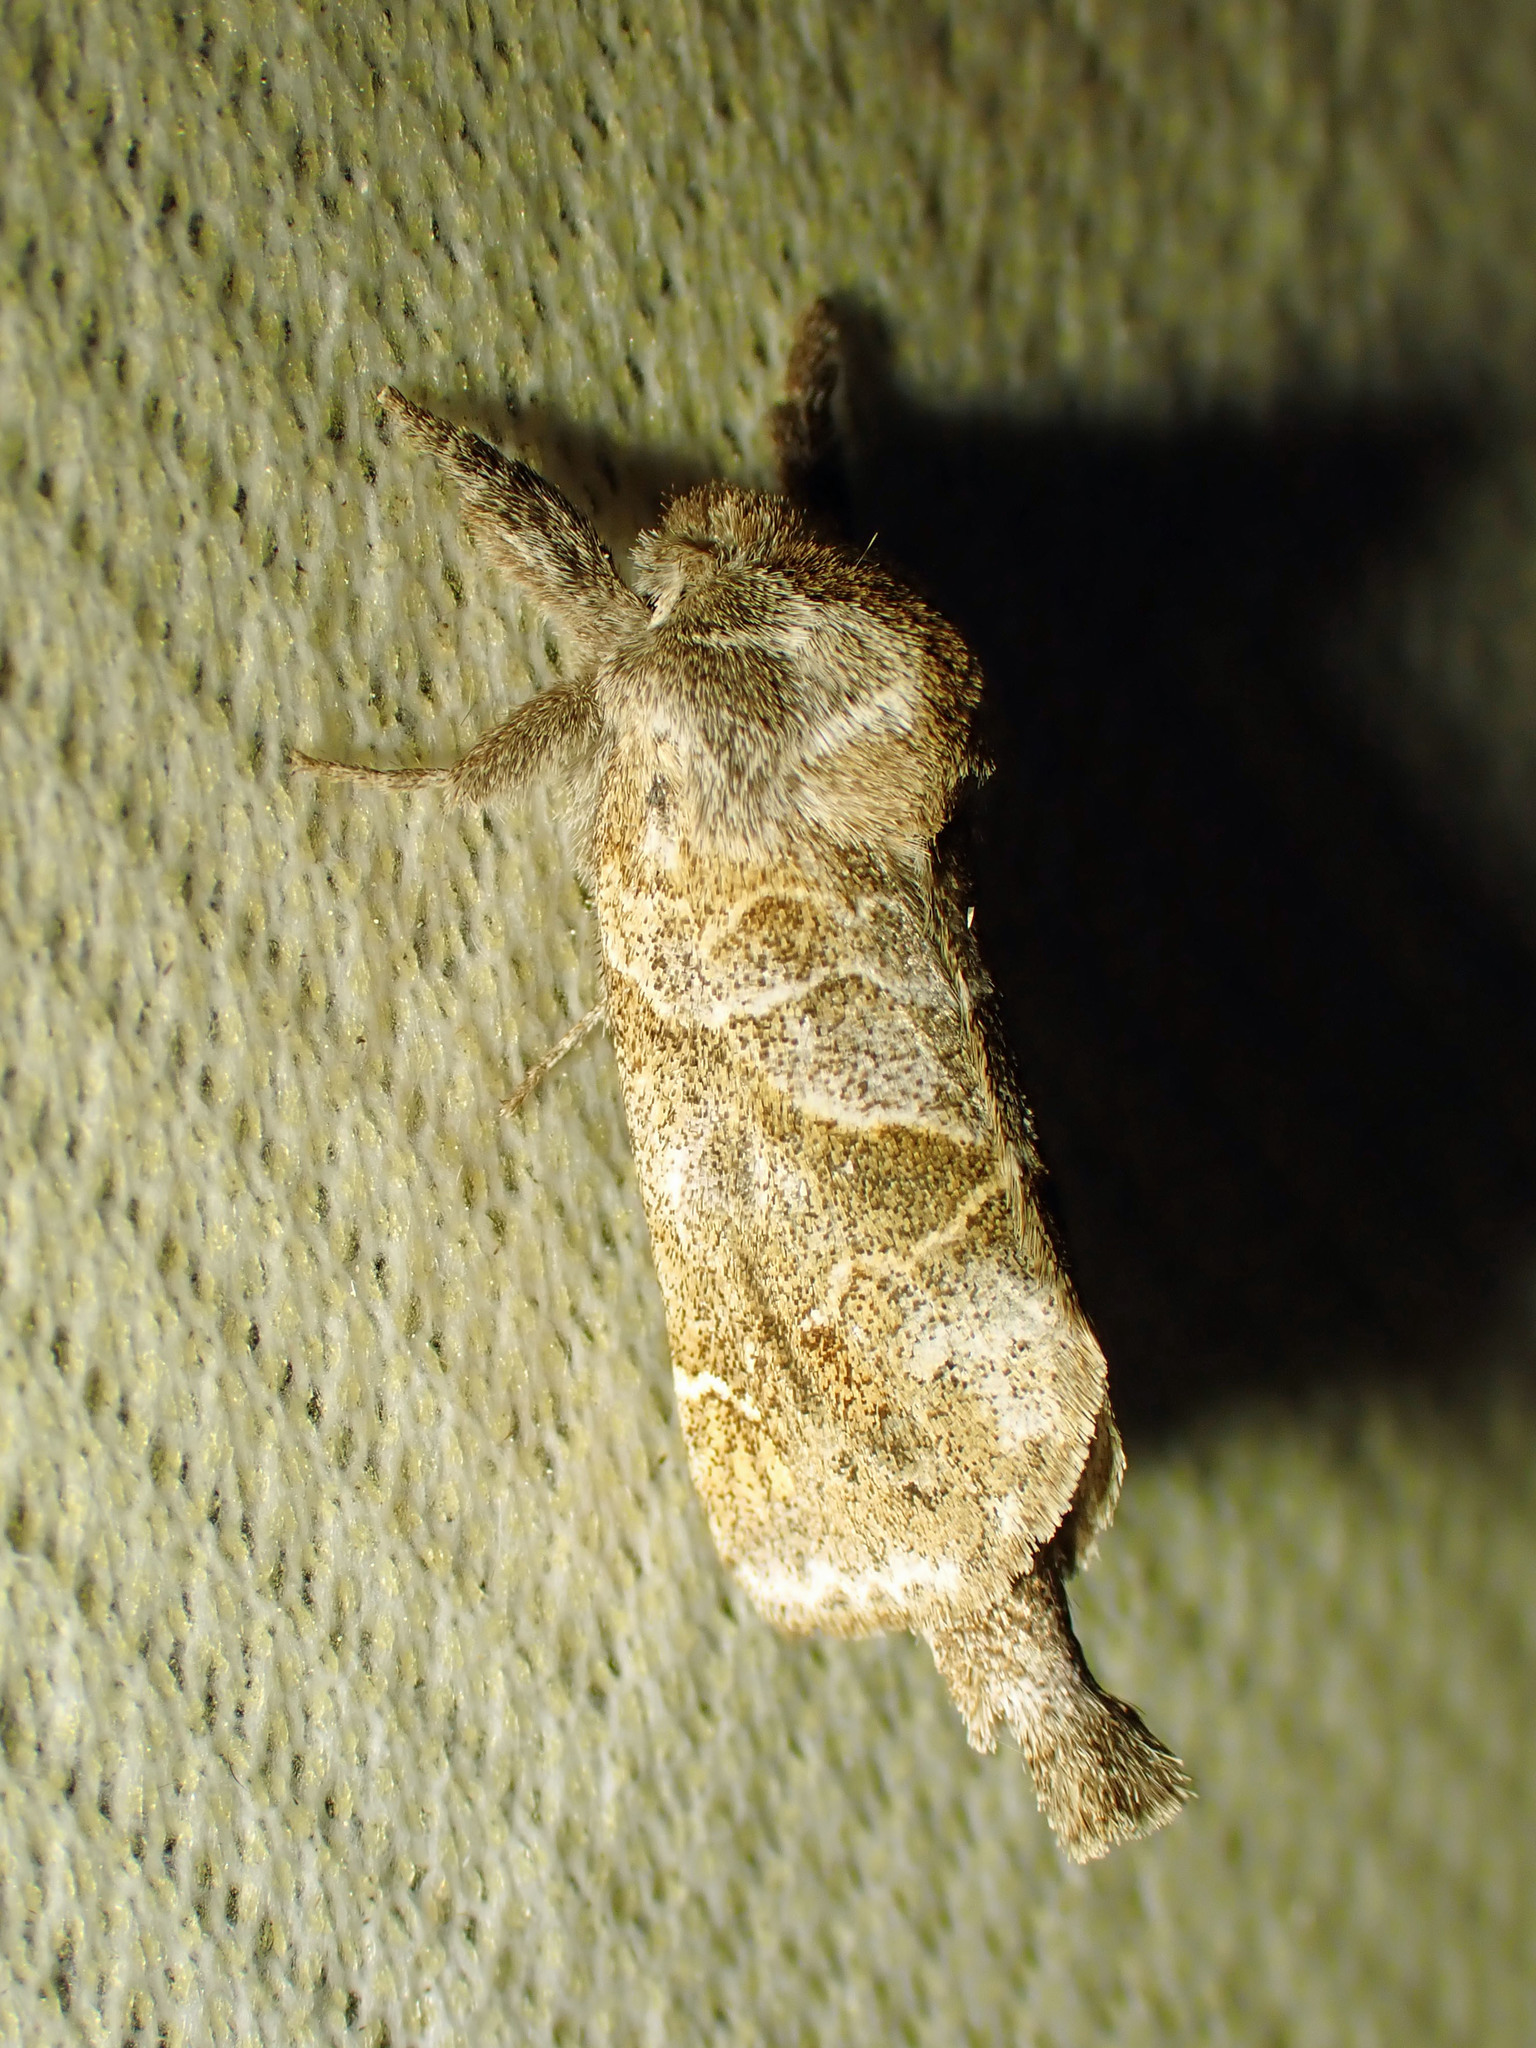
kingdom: Animalia
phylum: Arthropoda
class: Insecta
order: Lepidoptera
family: Notodontidae
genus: Clostera
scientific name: Clostera strigosa
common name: Striped chocolate-tip moth
